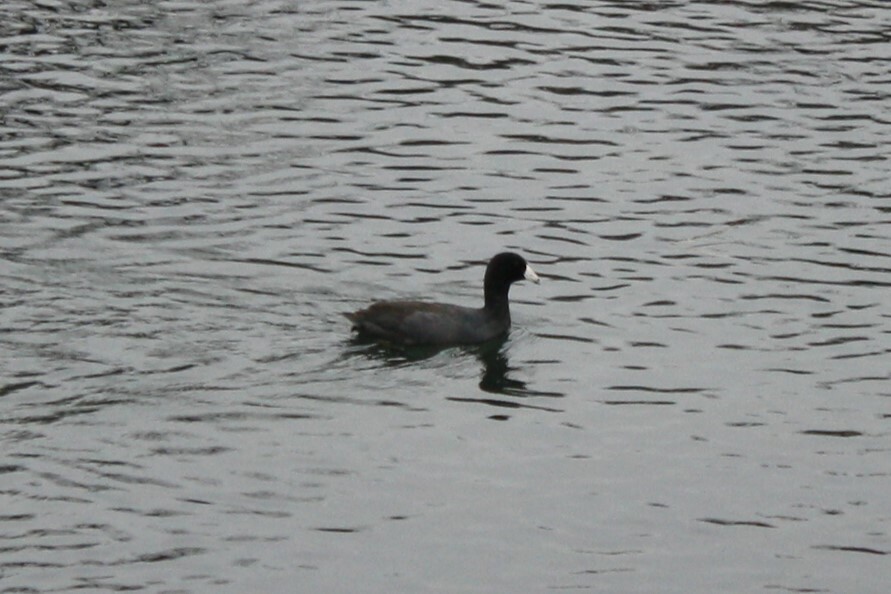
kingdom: Animalia
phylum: Chordata
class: Aves
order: Gruiformes
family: Rallidae
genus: Fulica
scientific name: Fulica americana
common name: American coot
